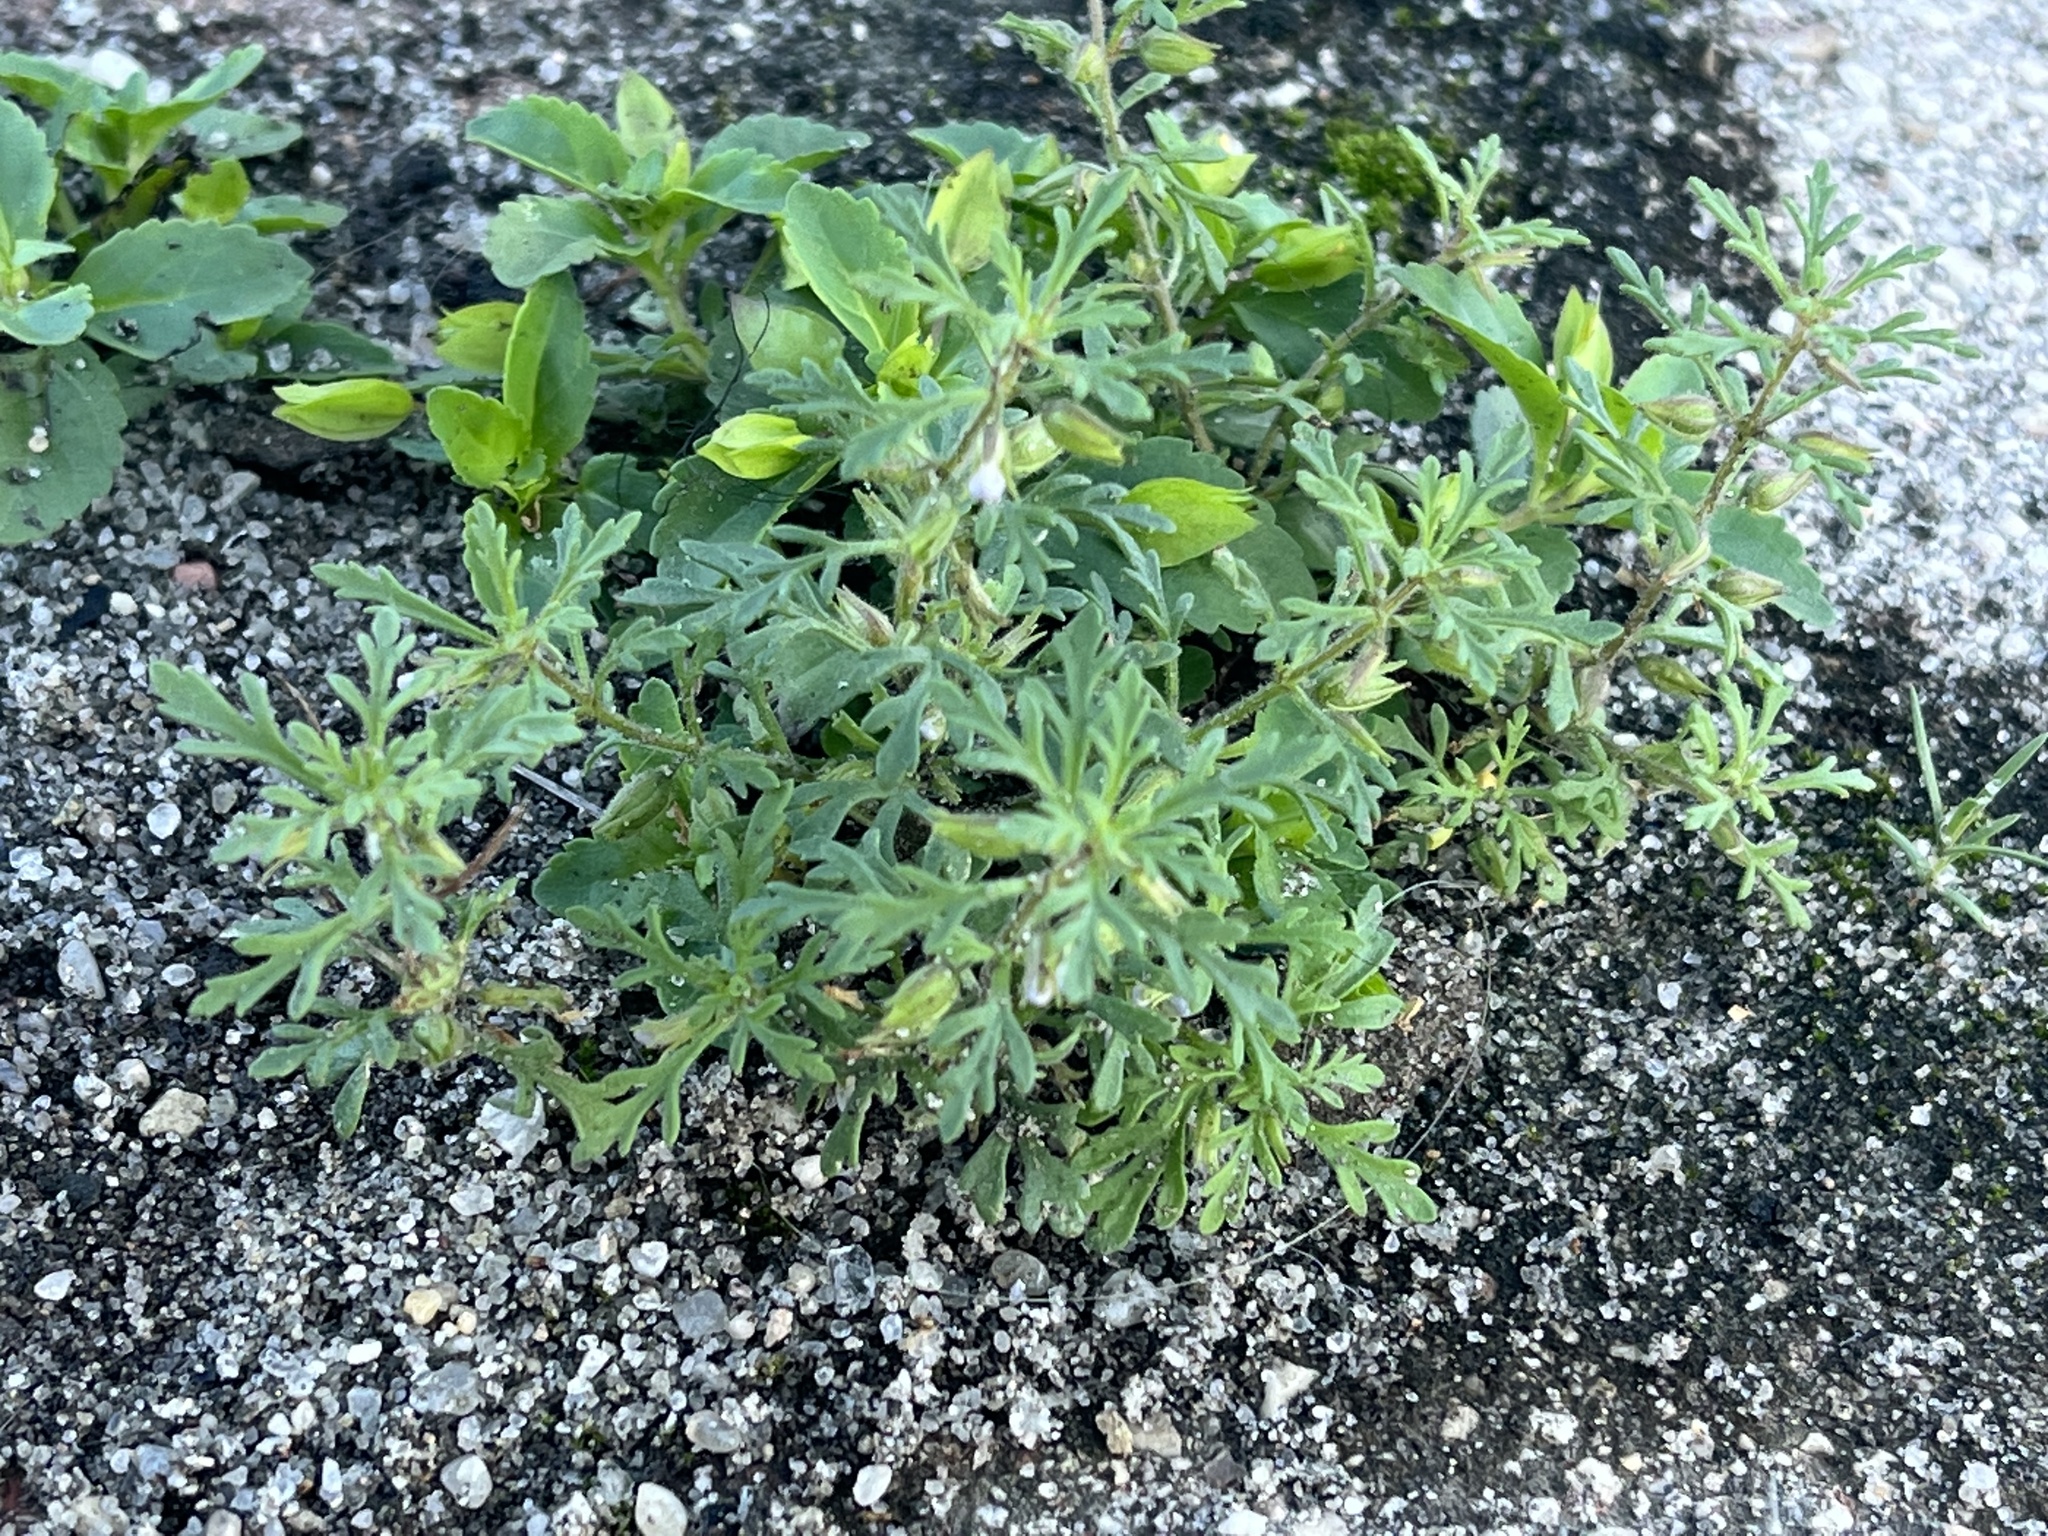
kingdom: Plantae
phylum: Tracheophyta
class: Magnoliopsida
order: Lamiales
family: Plantaginaceae
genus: Leucospora
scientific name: Leucospora multifida
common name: Narrow-leaf paleseed
